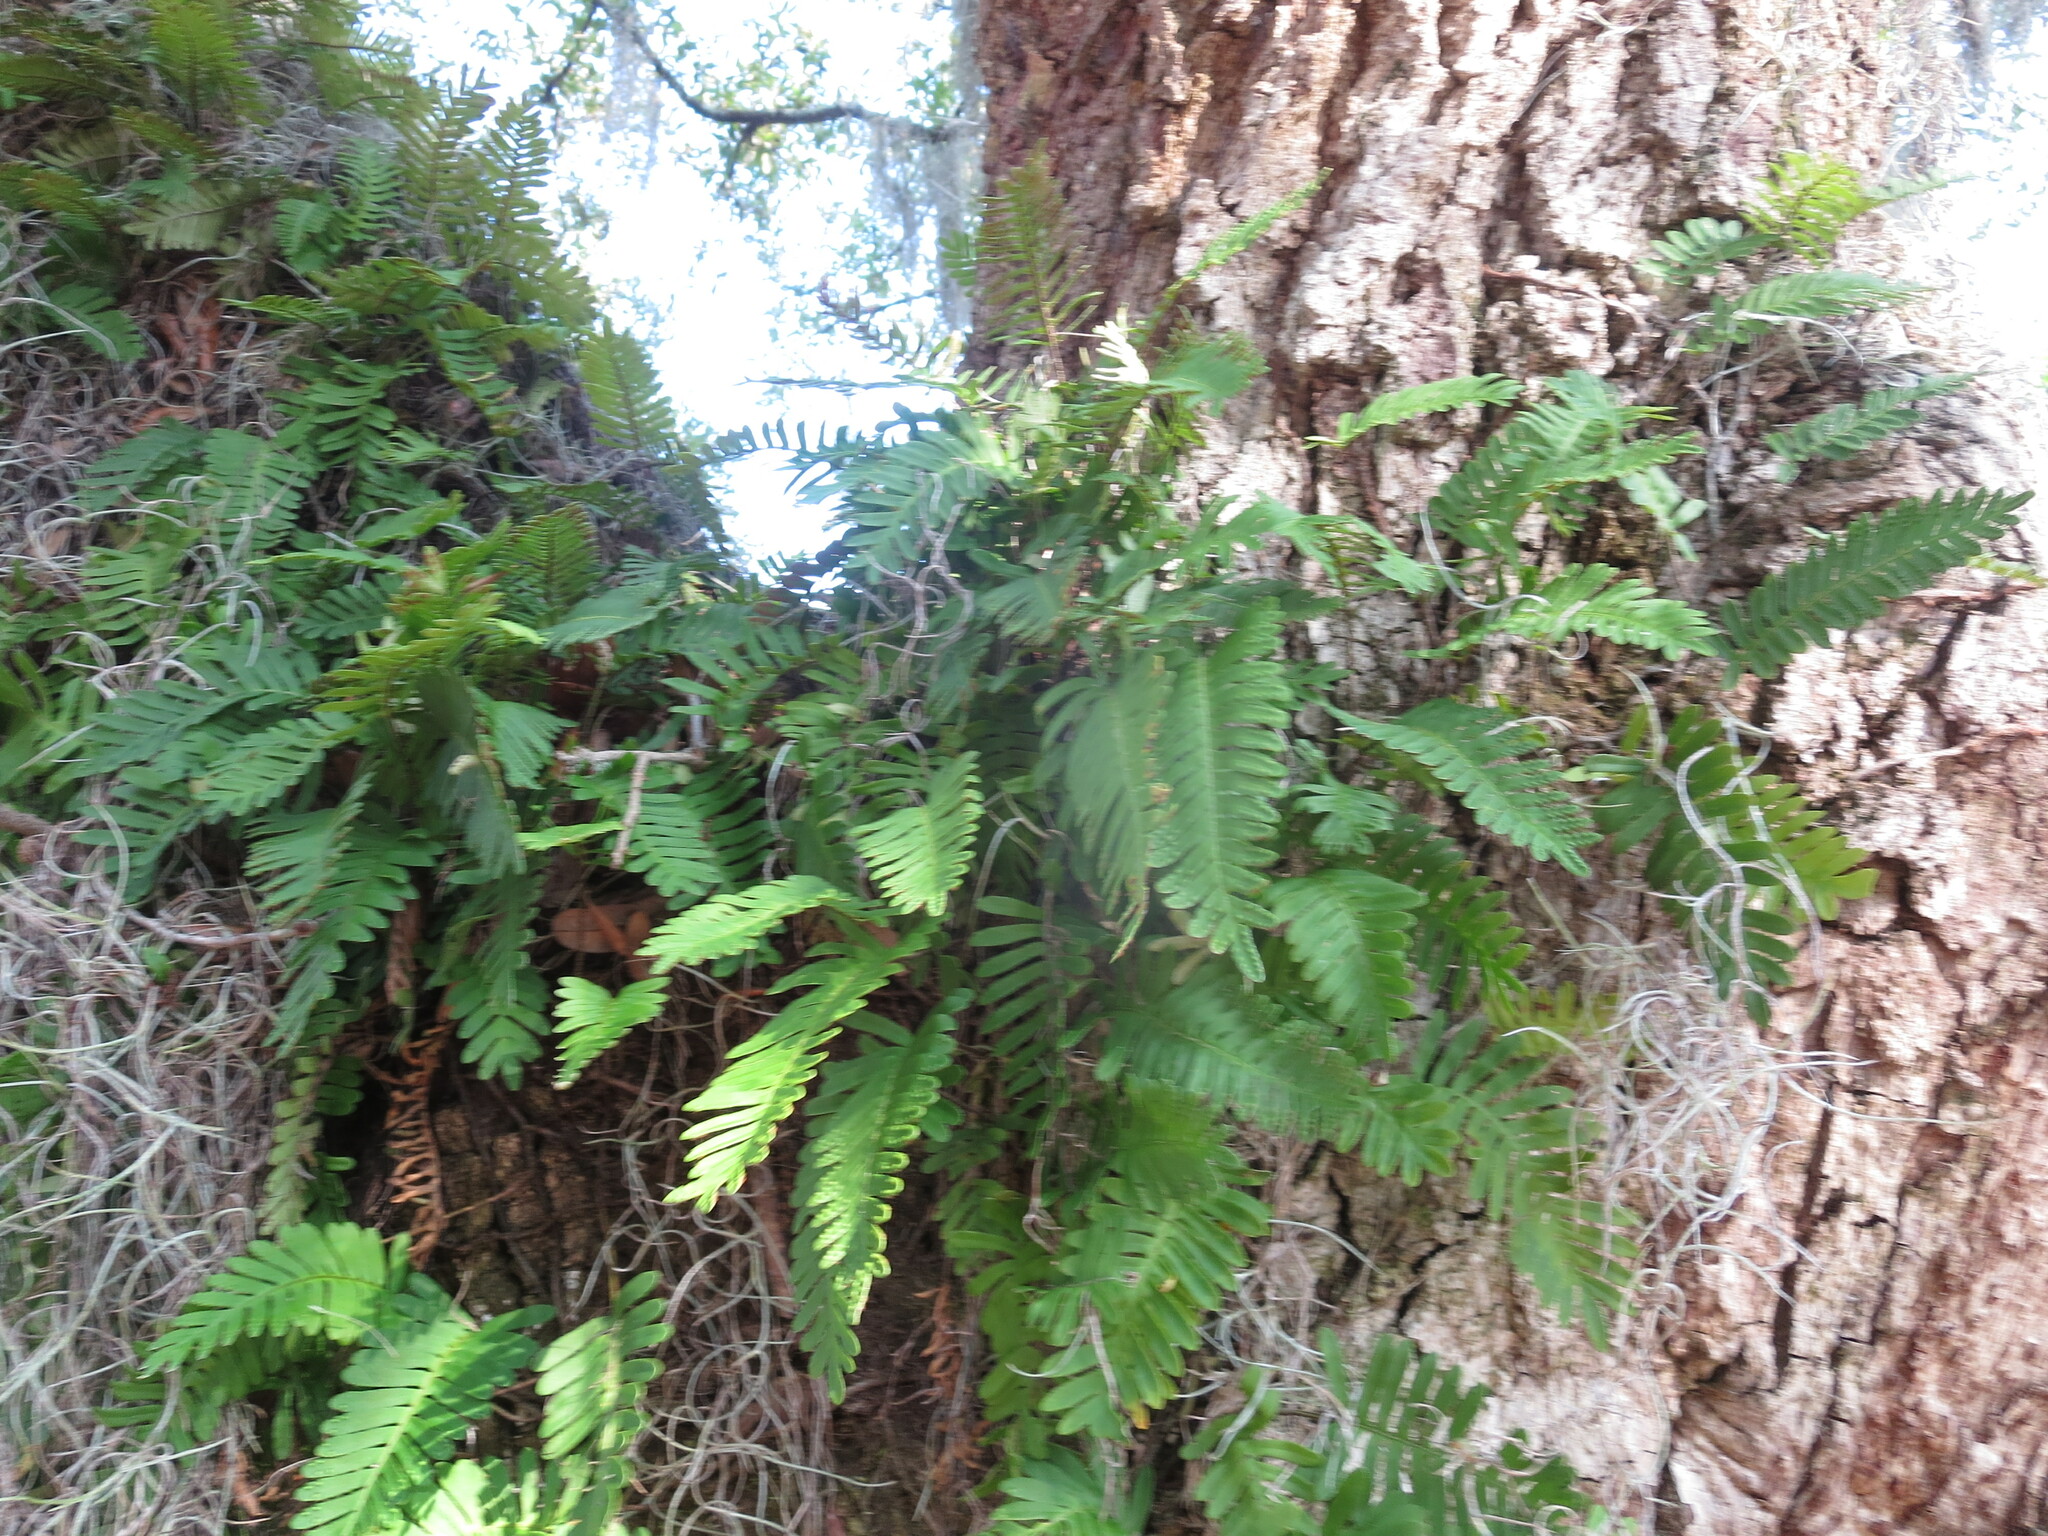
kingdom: Plantae
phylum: Tracheophyta
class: Polypodiopsida
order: Polypodiales
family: Polypodiaceae
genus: Pleopeltis
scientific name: Pleopeltis michauxiana
